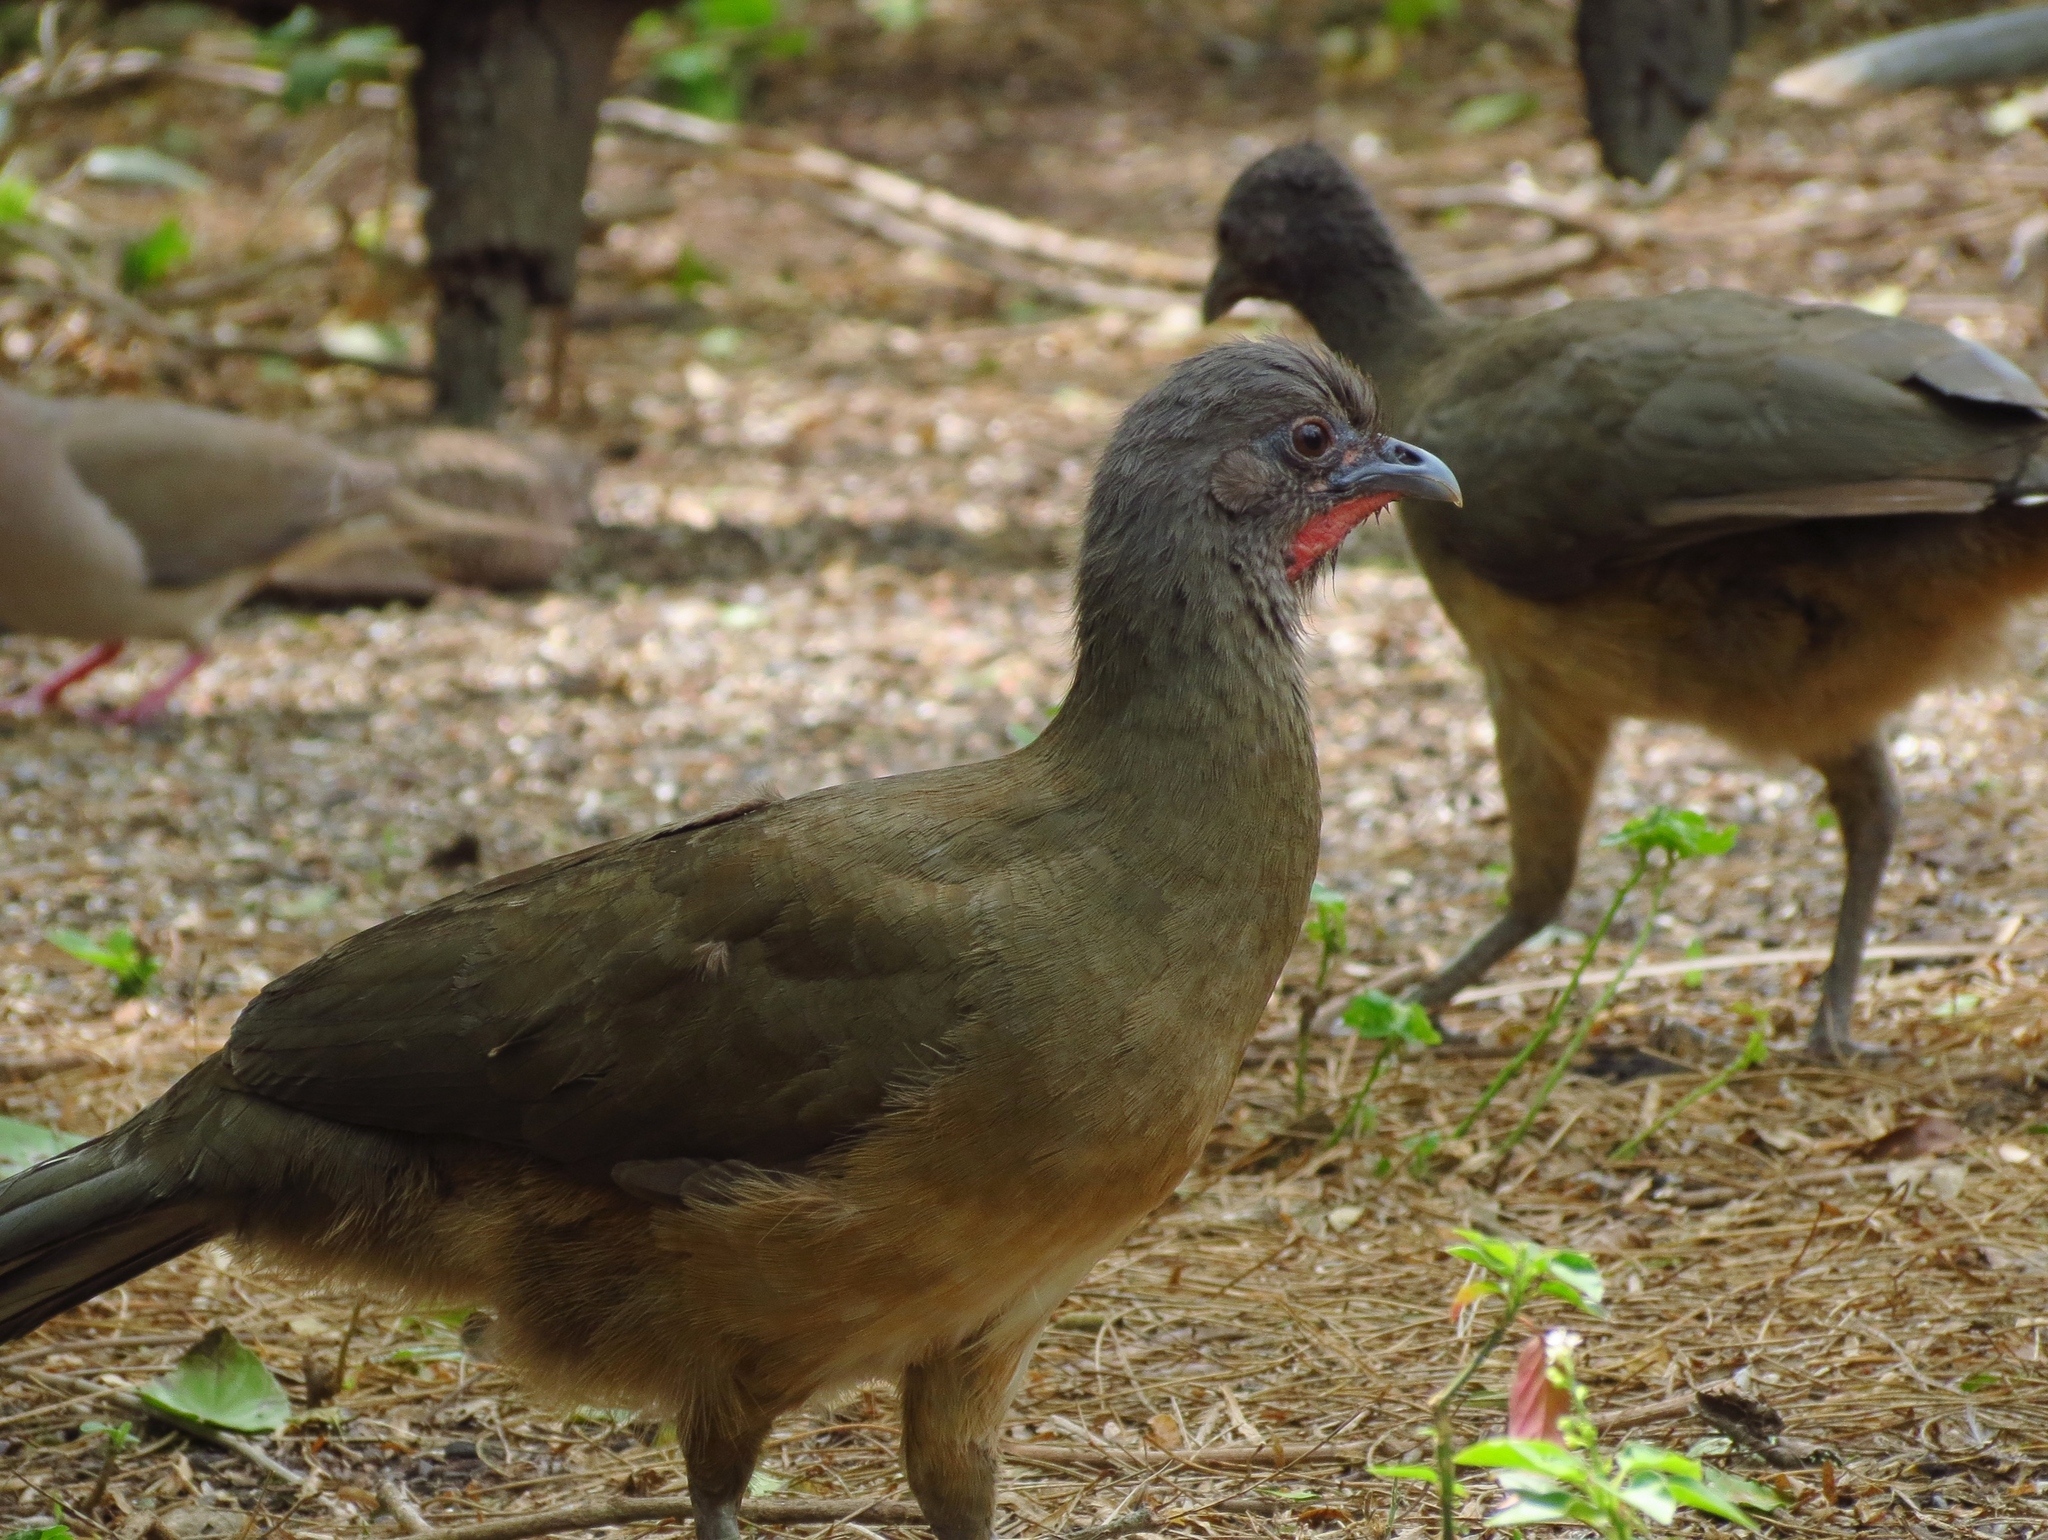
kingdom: Animalia
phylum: Chordata
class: Aves
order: Galliformes
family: Cracidae
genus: Ortalis
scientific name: Ortalis vetula
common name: Plain chachalaca
